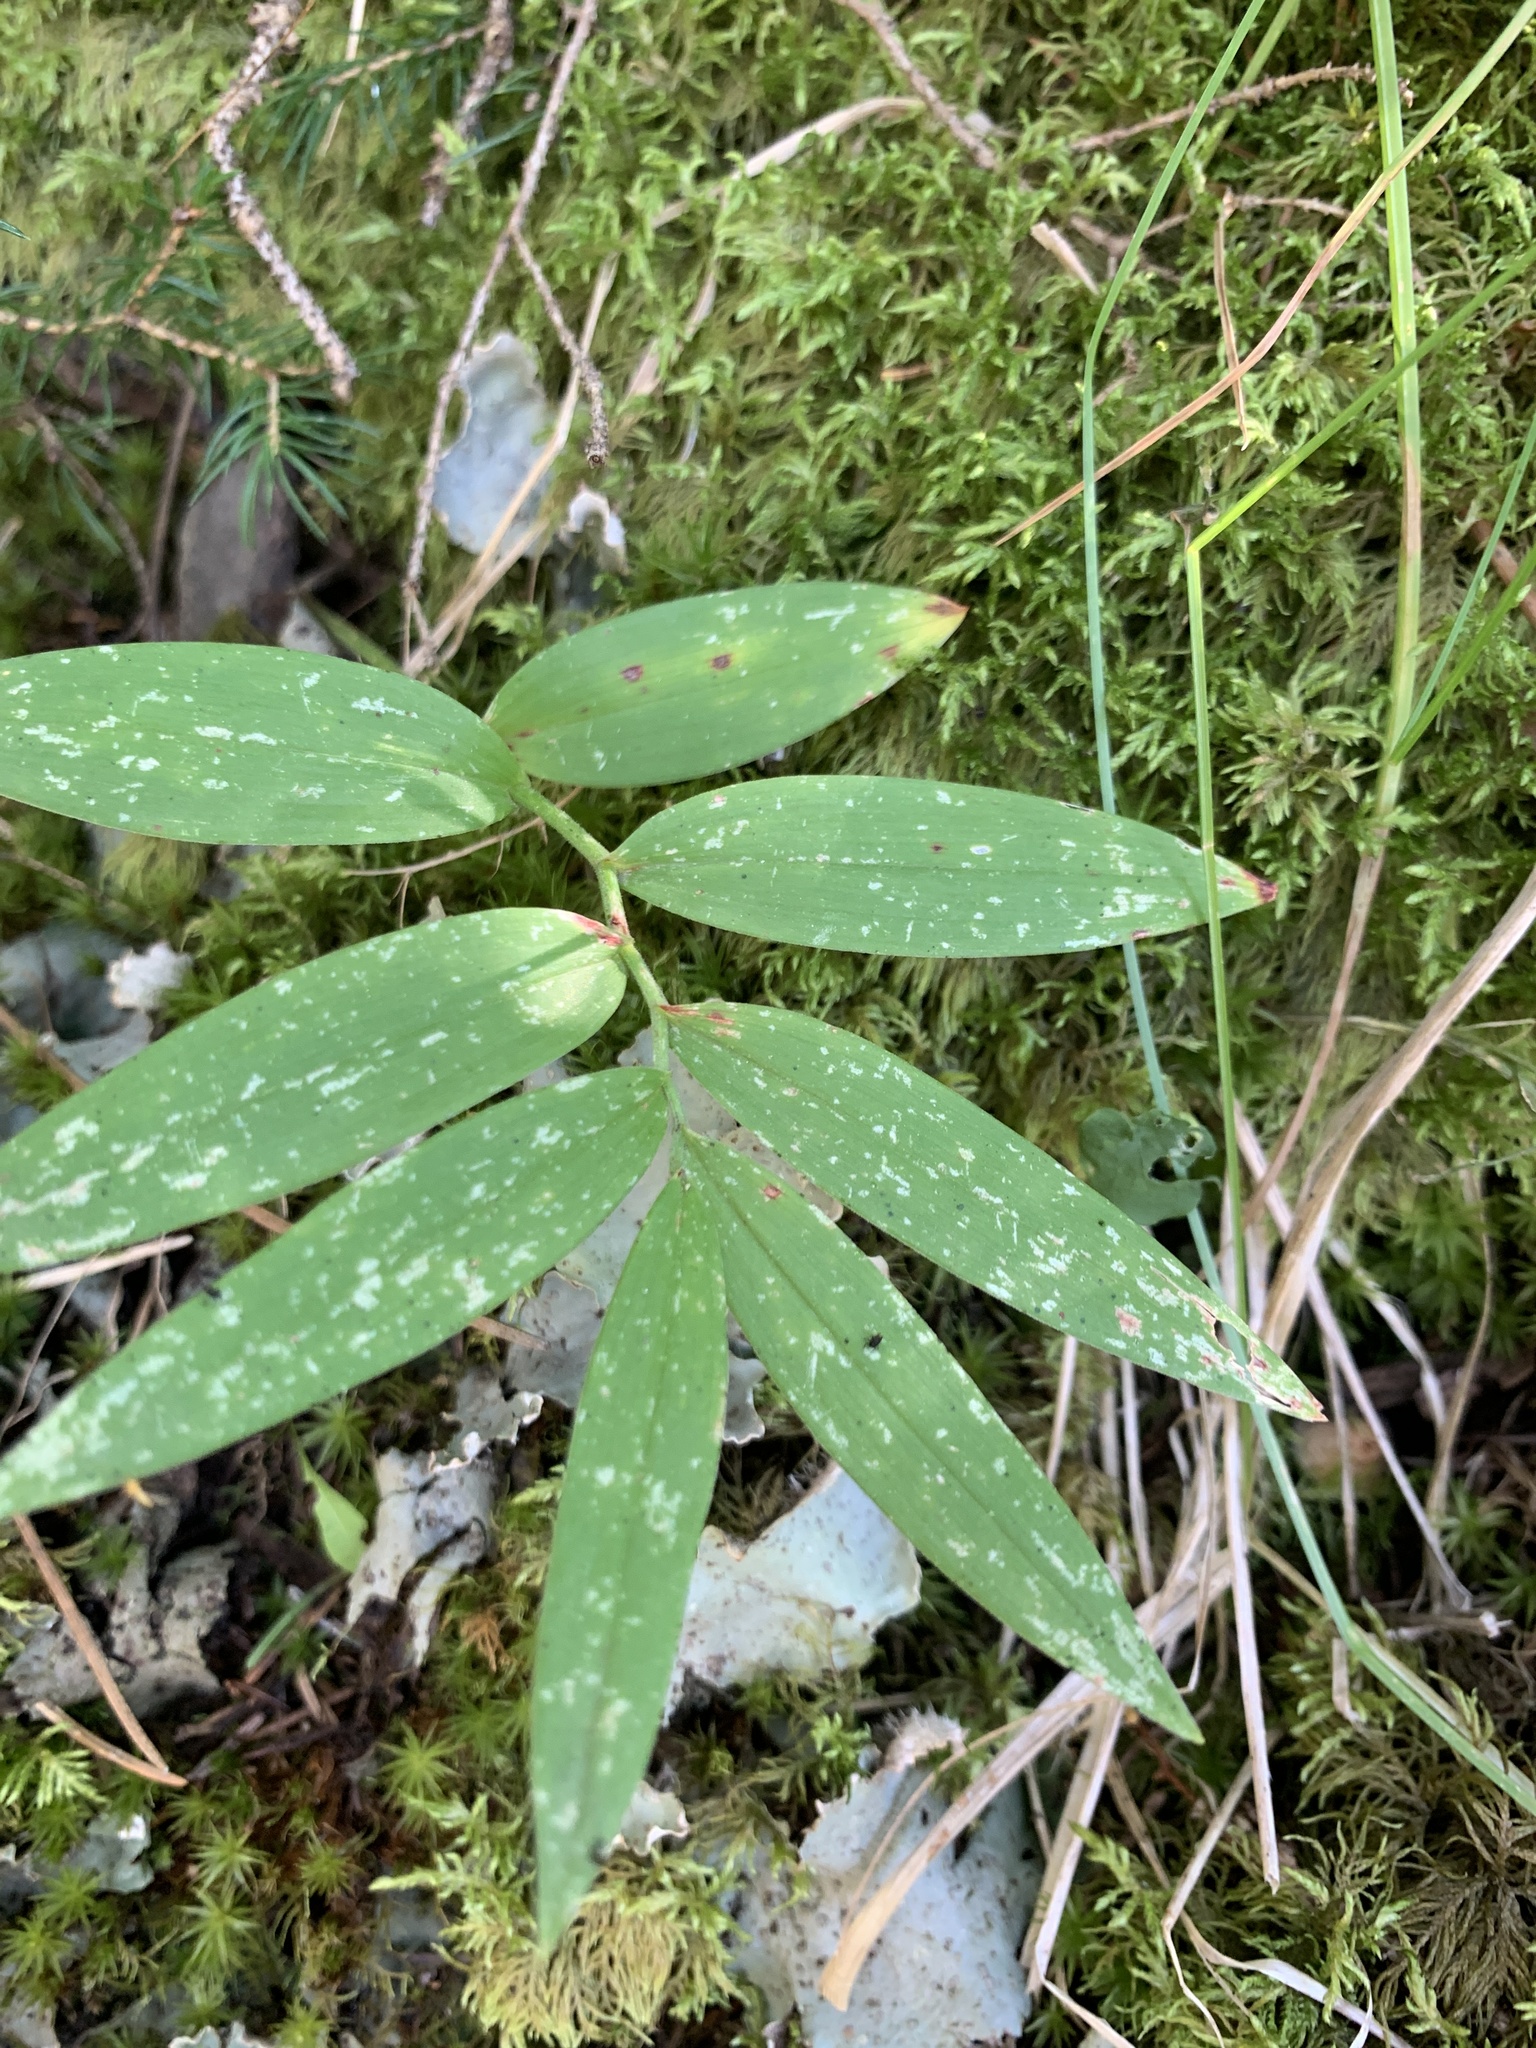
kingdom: Plantae
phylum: Tracheophyta
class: Liliopsida
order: Asparagales
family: Asparagaceae
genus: Maianthemum
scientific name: Maianthemum stellatum
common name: Little false solomon's seal
